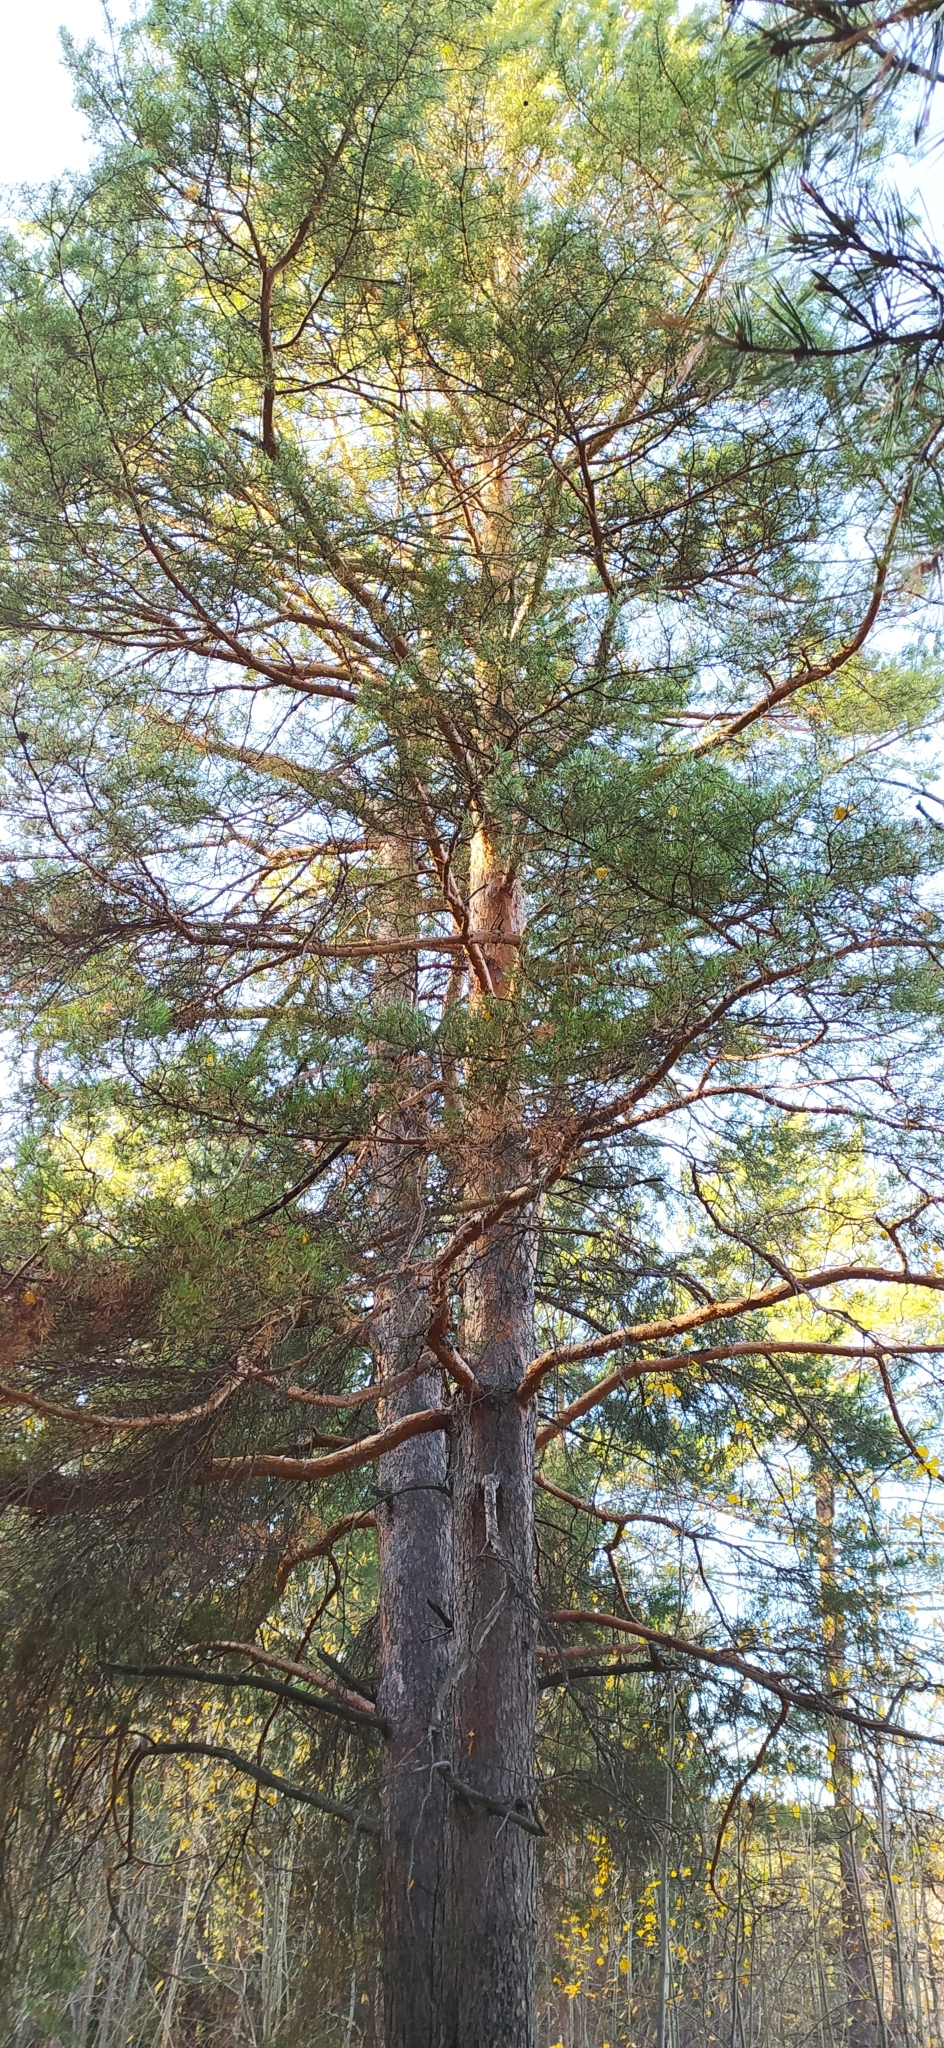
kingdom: Plantae
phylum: Tracheophyta
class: Pinopsida
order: Pinales
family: Pinaceae
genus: Pinus
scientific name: Pinus sylvestris
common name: Scots pine
